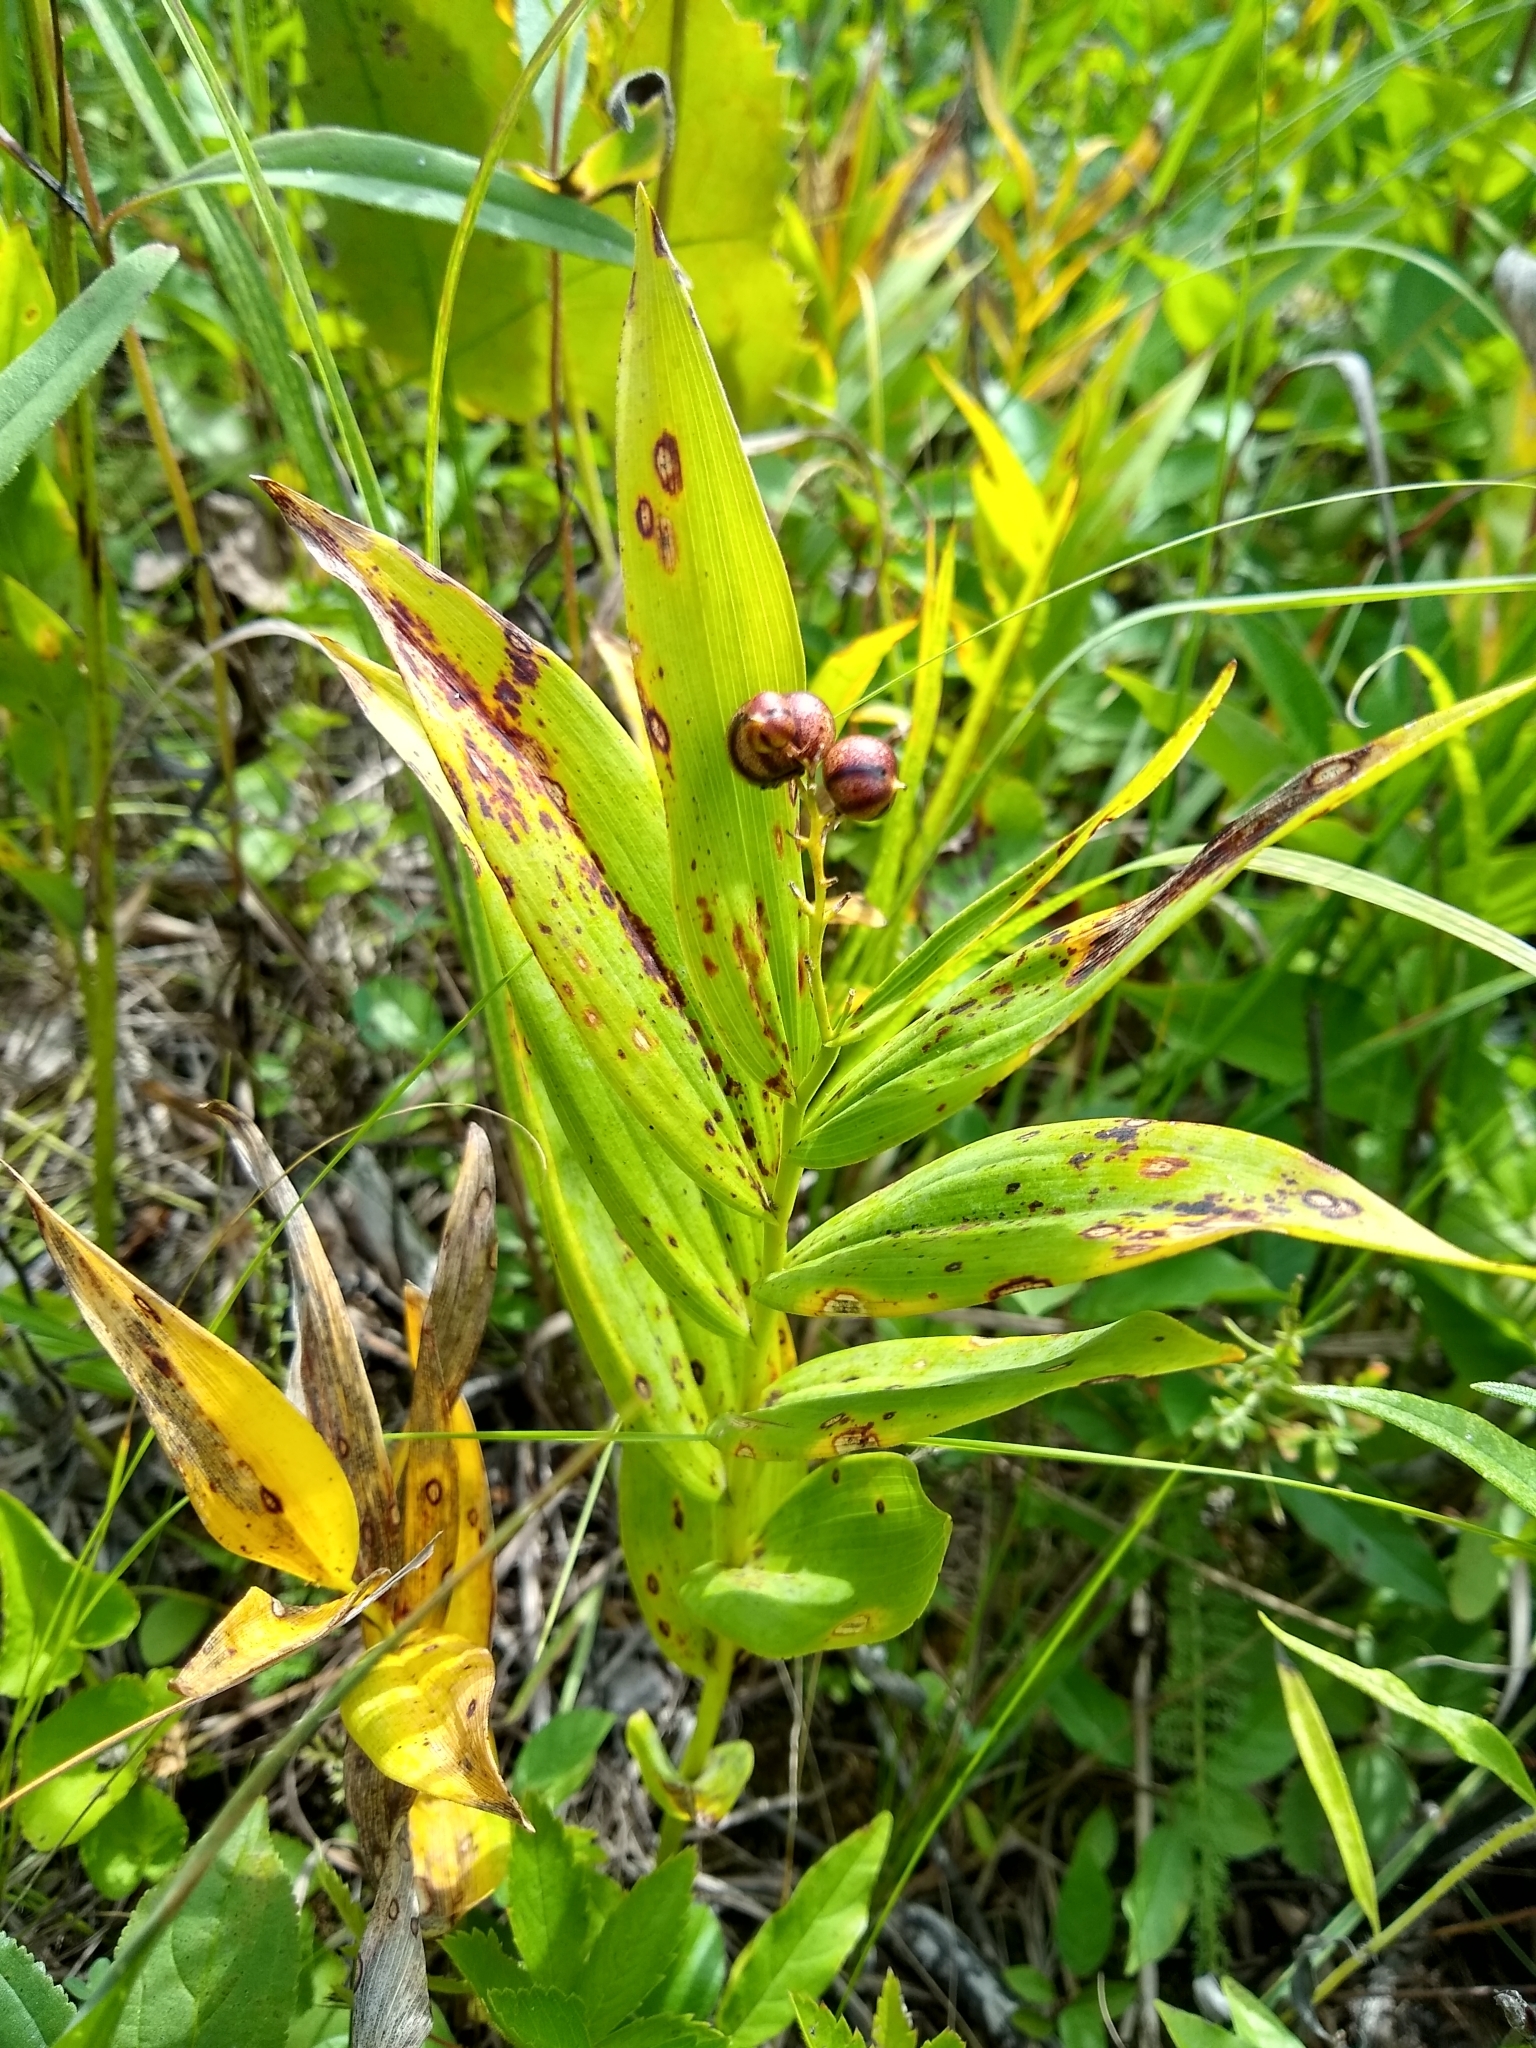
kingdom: Plantae
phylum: Tracheophyta
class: Liliopsida
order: Asparagales
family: Asparagaceae
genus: Maianthemum
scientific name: Maianthemum stellatum
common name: Little false solomon's seal
